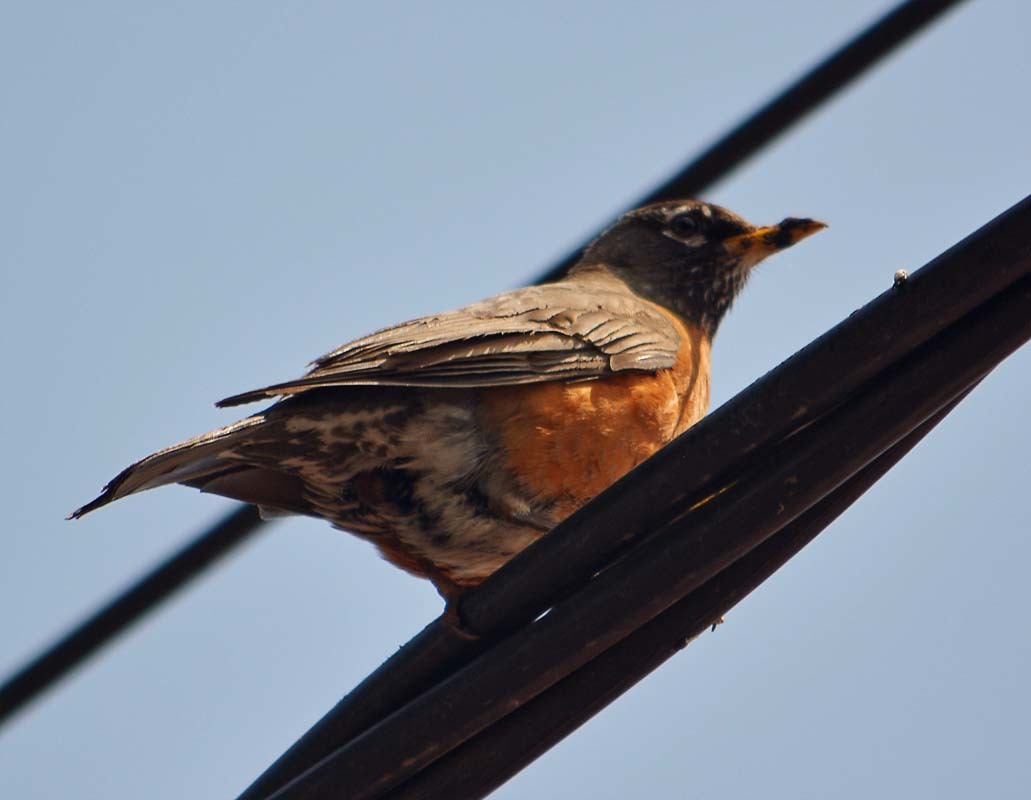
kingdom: Animalia
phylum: Chordata
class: Aves
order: Passeriformes
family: Turdidae
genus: Turdus
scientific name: Turdus migratorius
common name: American robin
